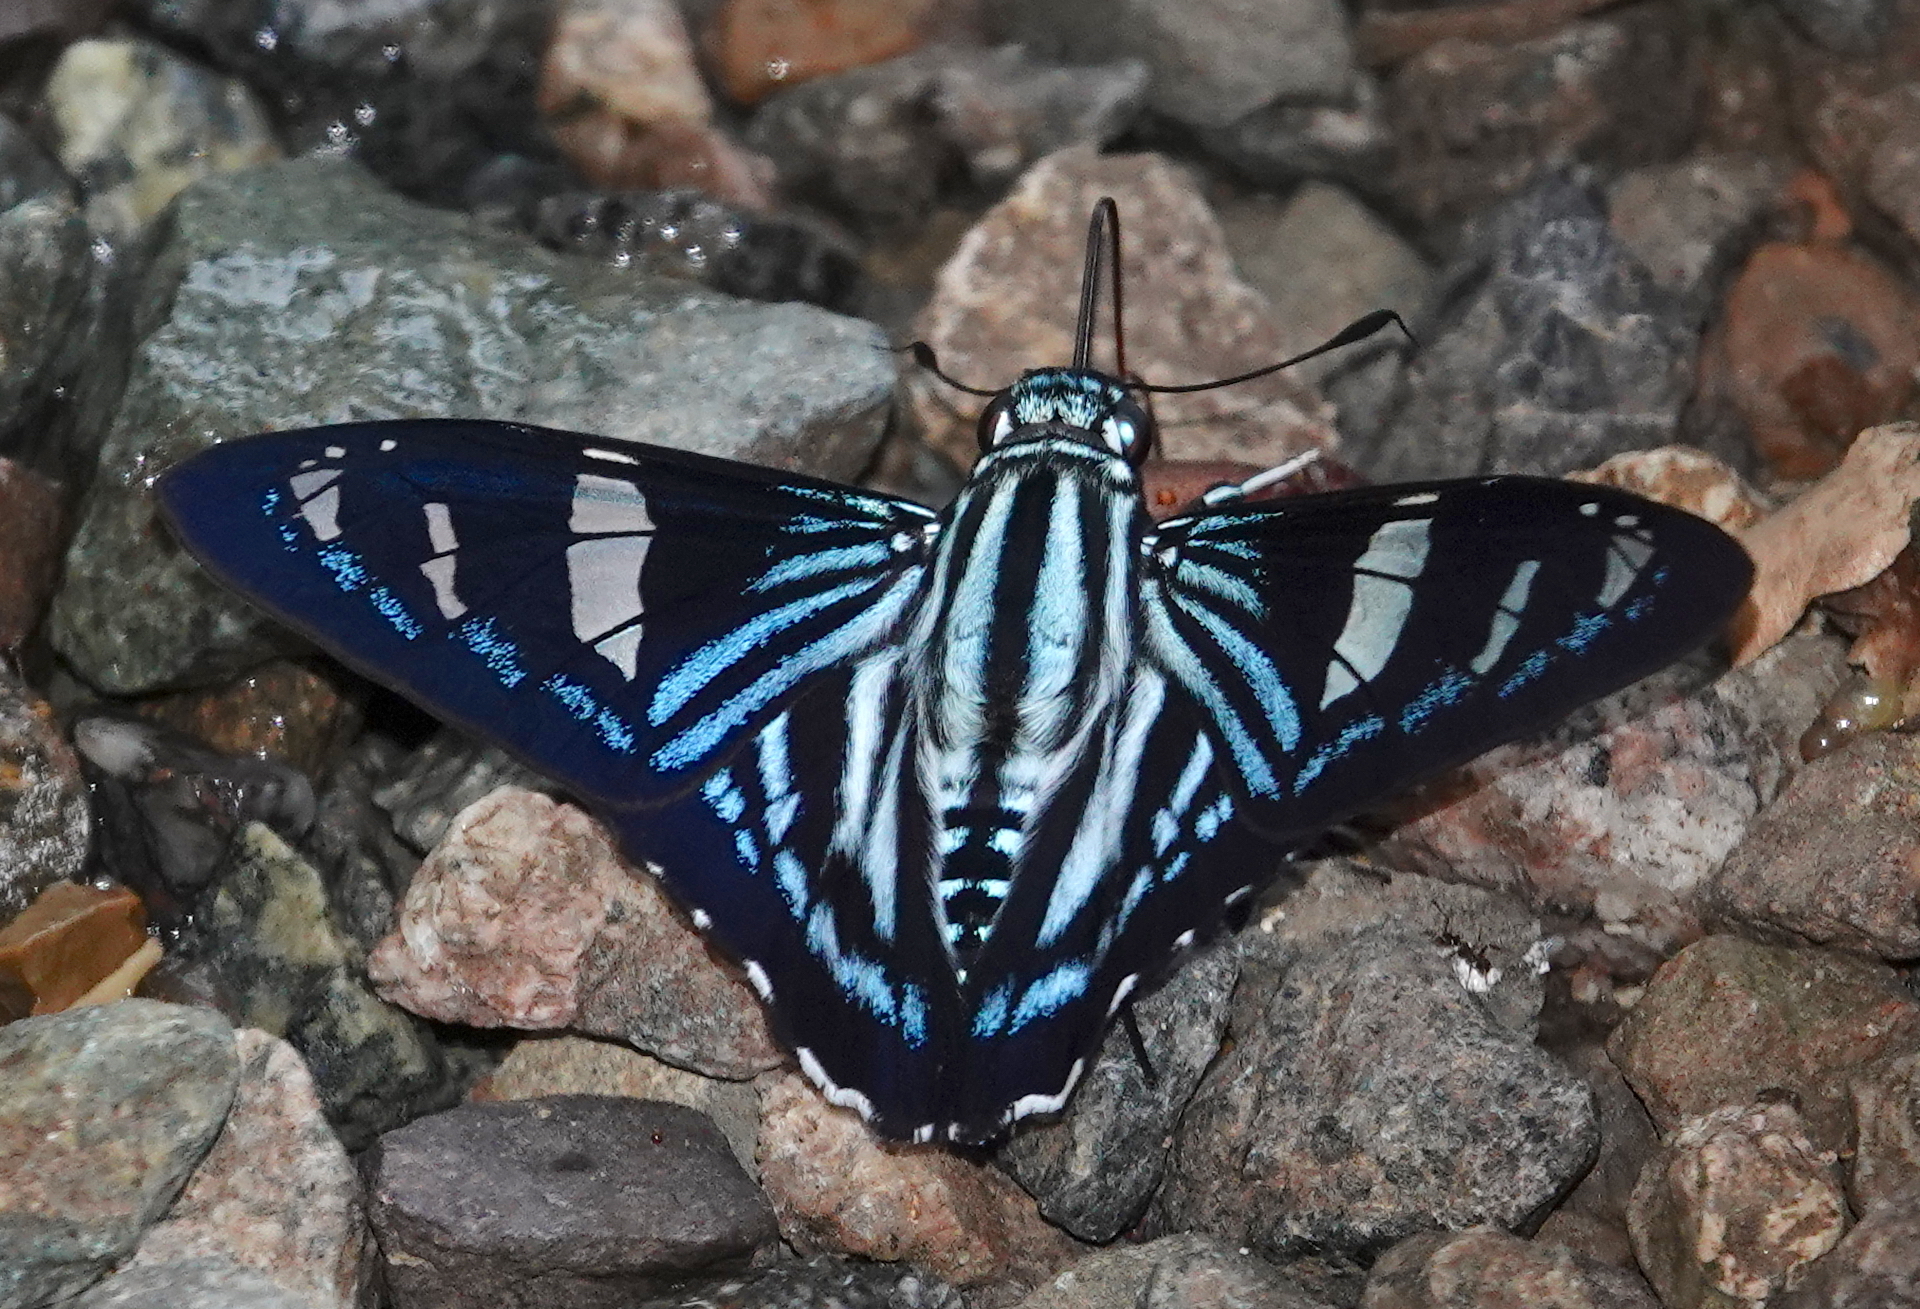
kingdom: Animalia
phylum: Arthropoda
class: Insecta
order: Lepidoptera
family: Hesperiidae
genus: Phocides
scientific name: Phocides pigmalion
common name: Mangrove skipper
